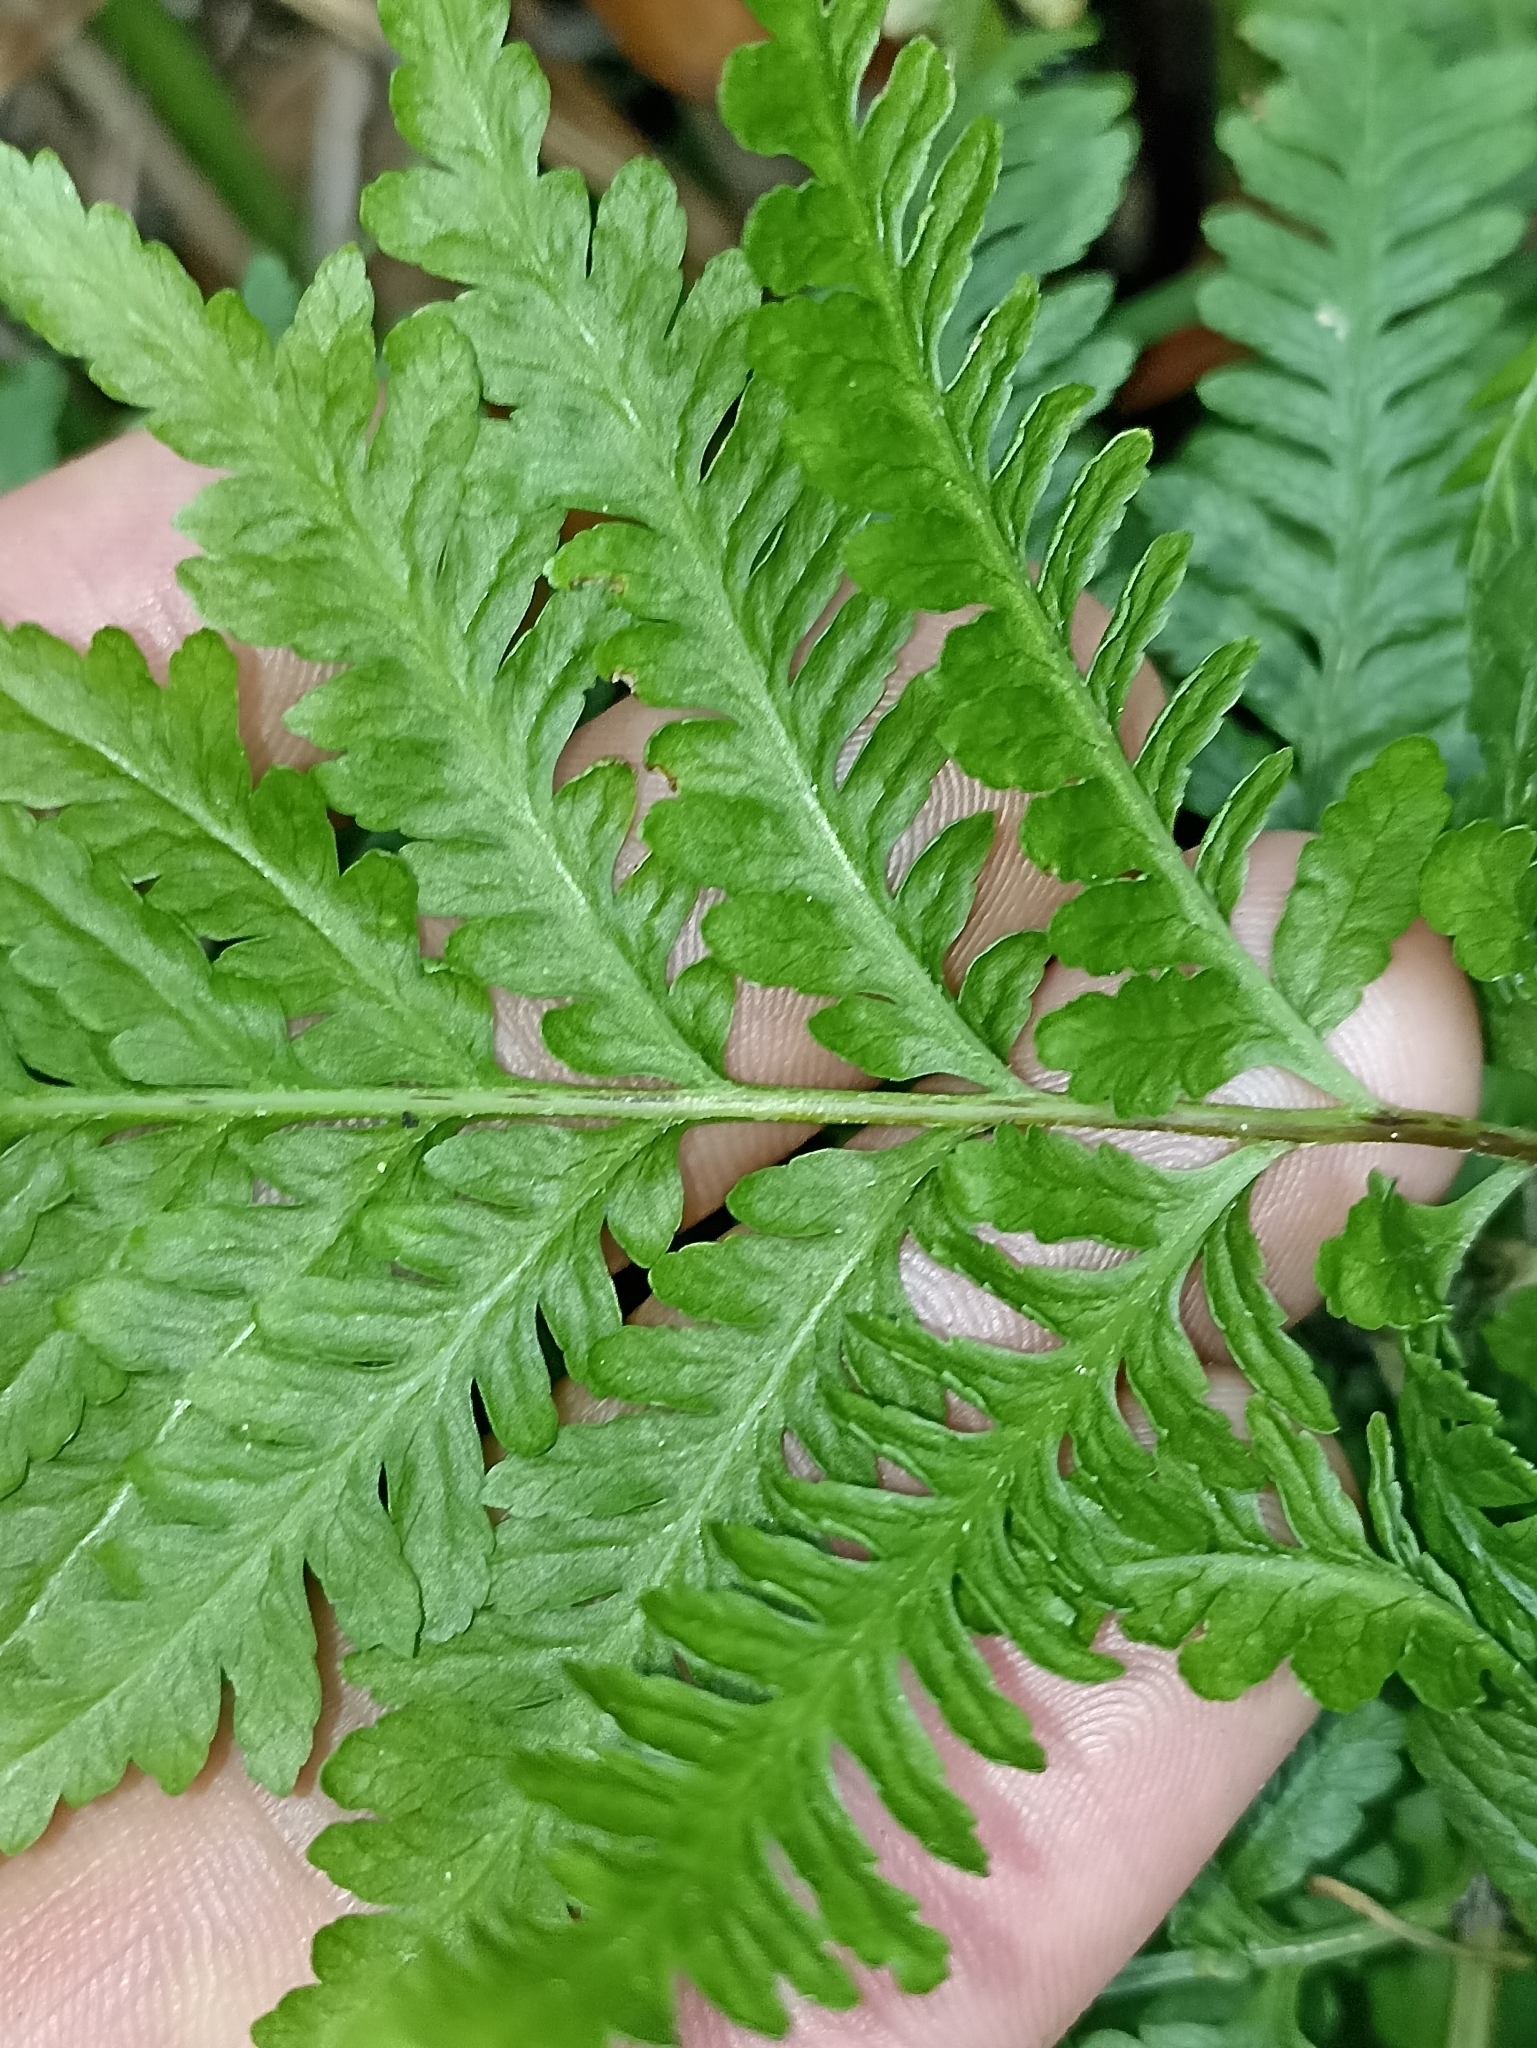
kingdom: Plantae
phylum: Tracheophyta
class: Polypodiopsida
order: Polypodiales
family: Pteridaceae
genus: Pteris
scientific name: Pteris tremula
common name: Australian brake
